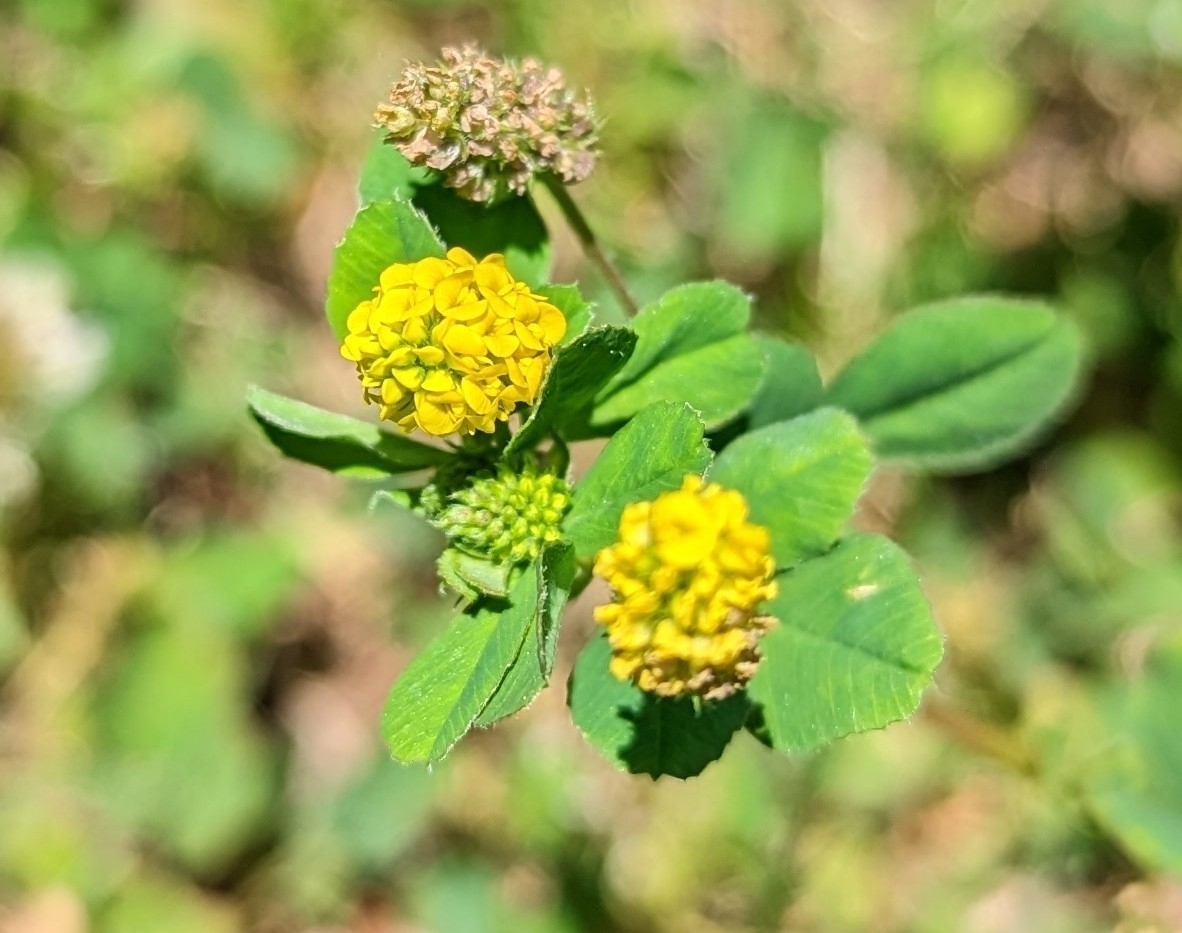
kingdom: Plantae
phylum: Tracheophyta
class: Magnoliopsida
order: Fabales
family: Fabaceae
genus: Medicago
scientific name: Medicago lupulina
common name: Black medick
